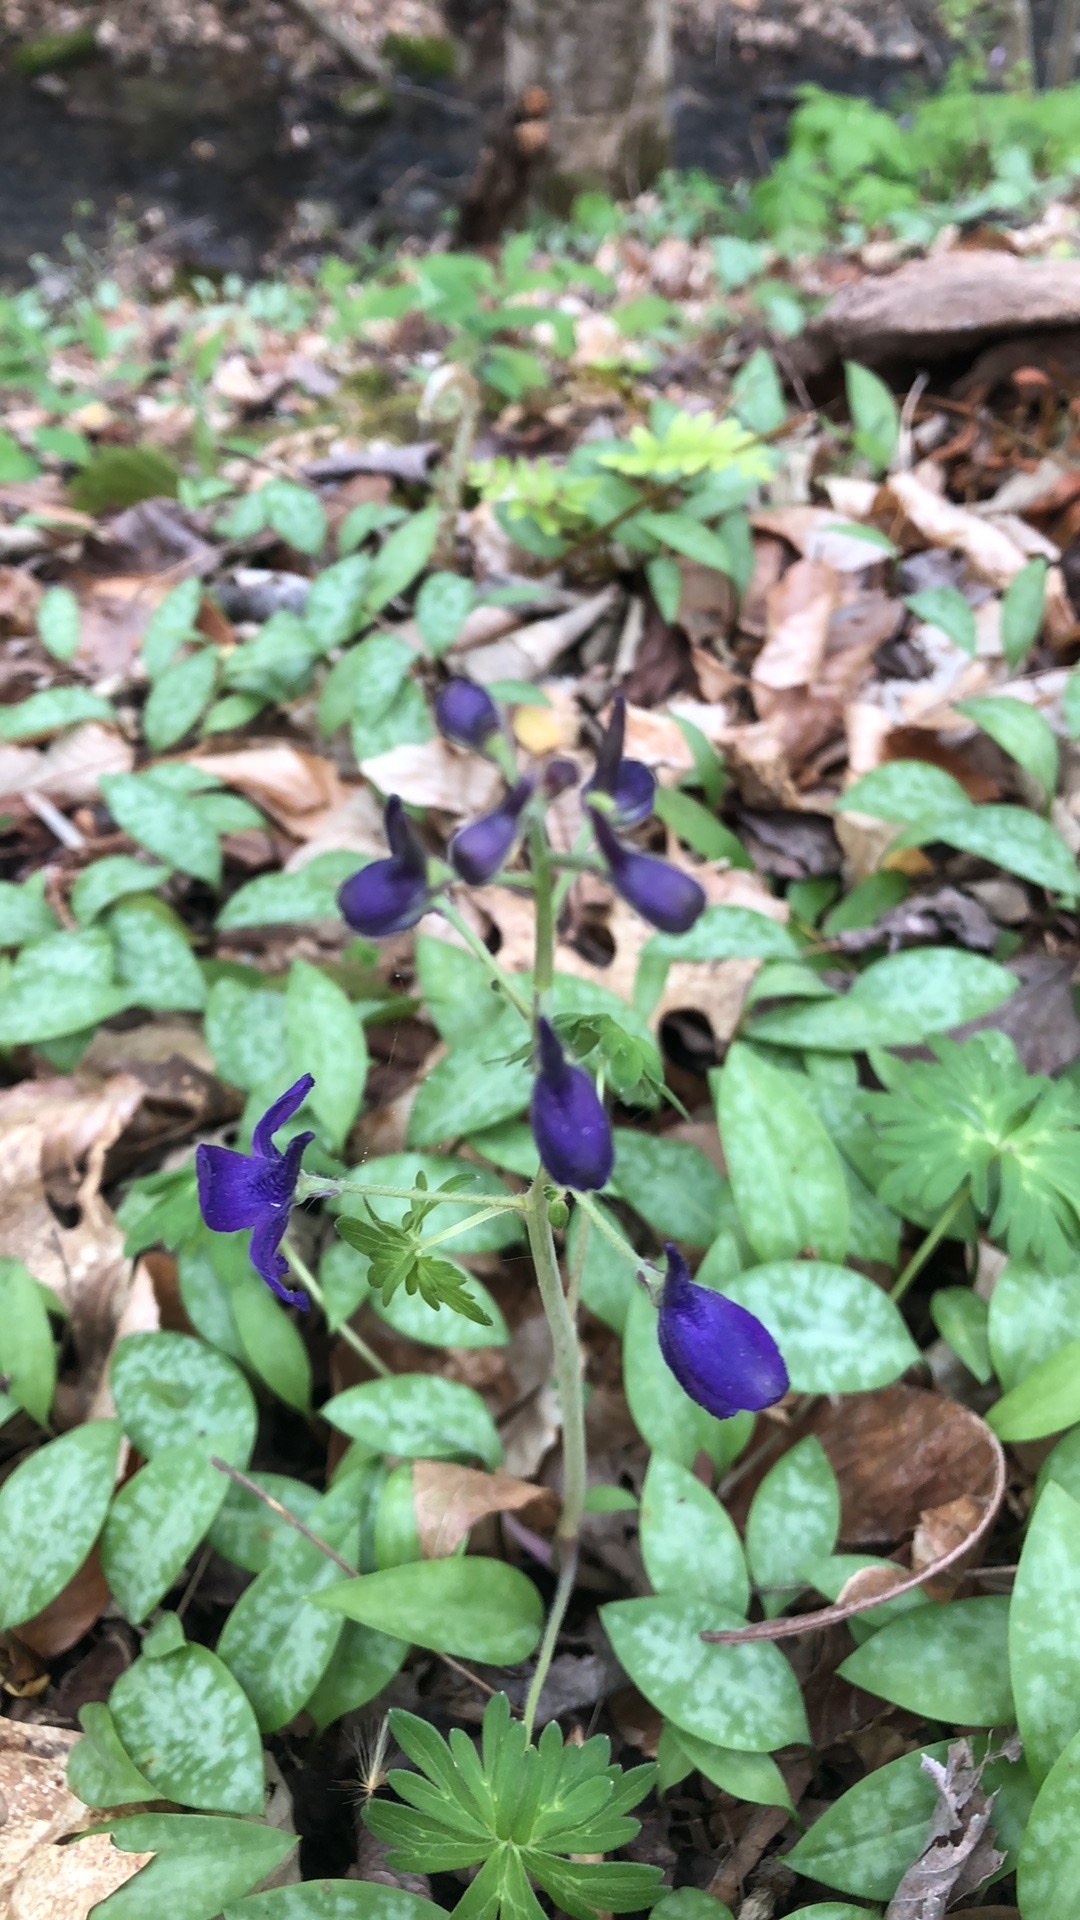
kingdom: Plantae
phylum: Tracheophyta
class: Magnoliopsida
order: Ranunculales
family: Ranunculaceae
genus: Delphinium
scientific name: Delphinium tricorne
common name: Dwarf larkspur
